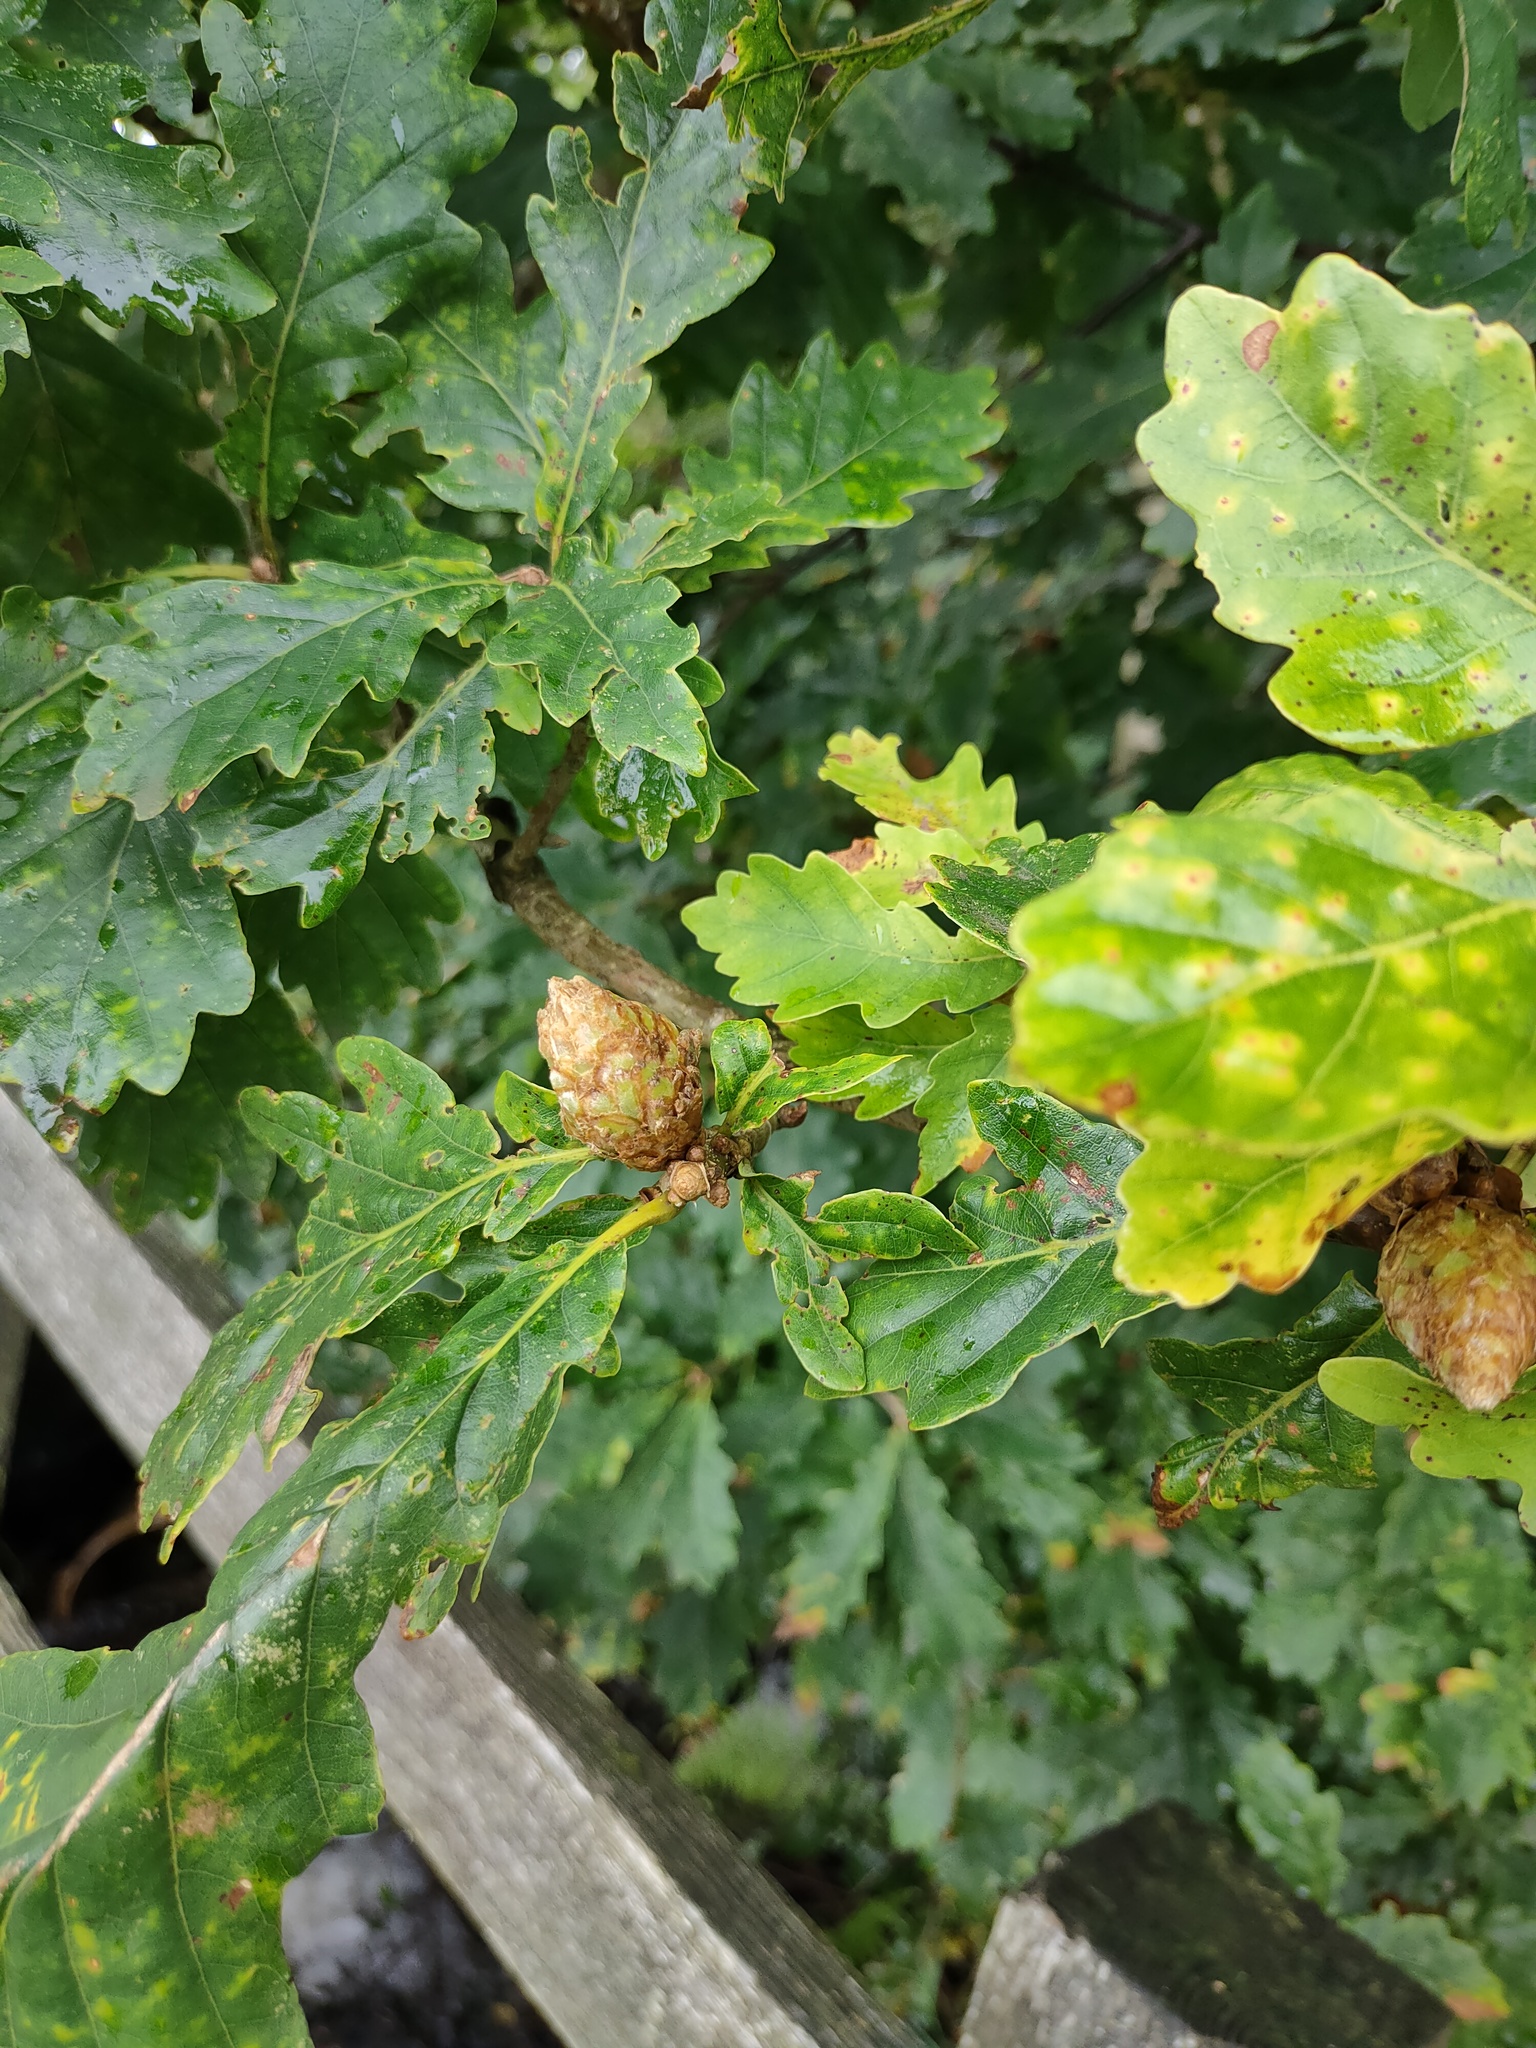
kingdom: Animalia
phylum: Arthropoda
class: Insecta
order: Hymenoptera
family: Cynipidae
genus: Andricus
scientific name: Andricus foecundatrix
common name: Artichoke gall
